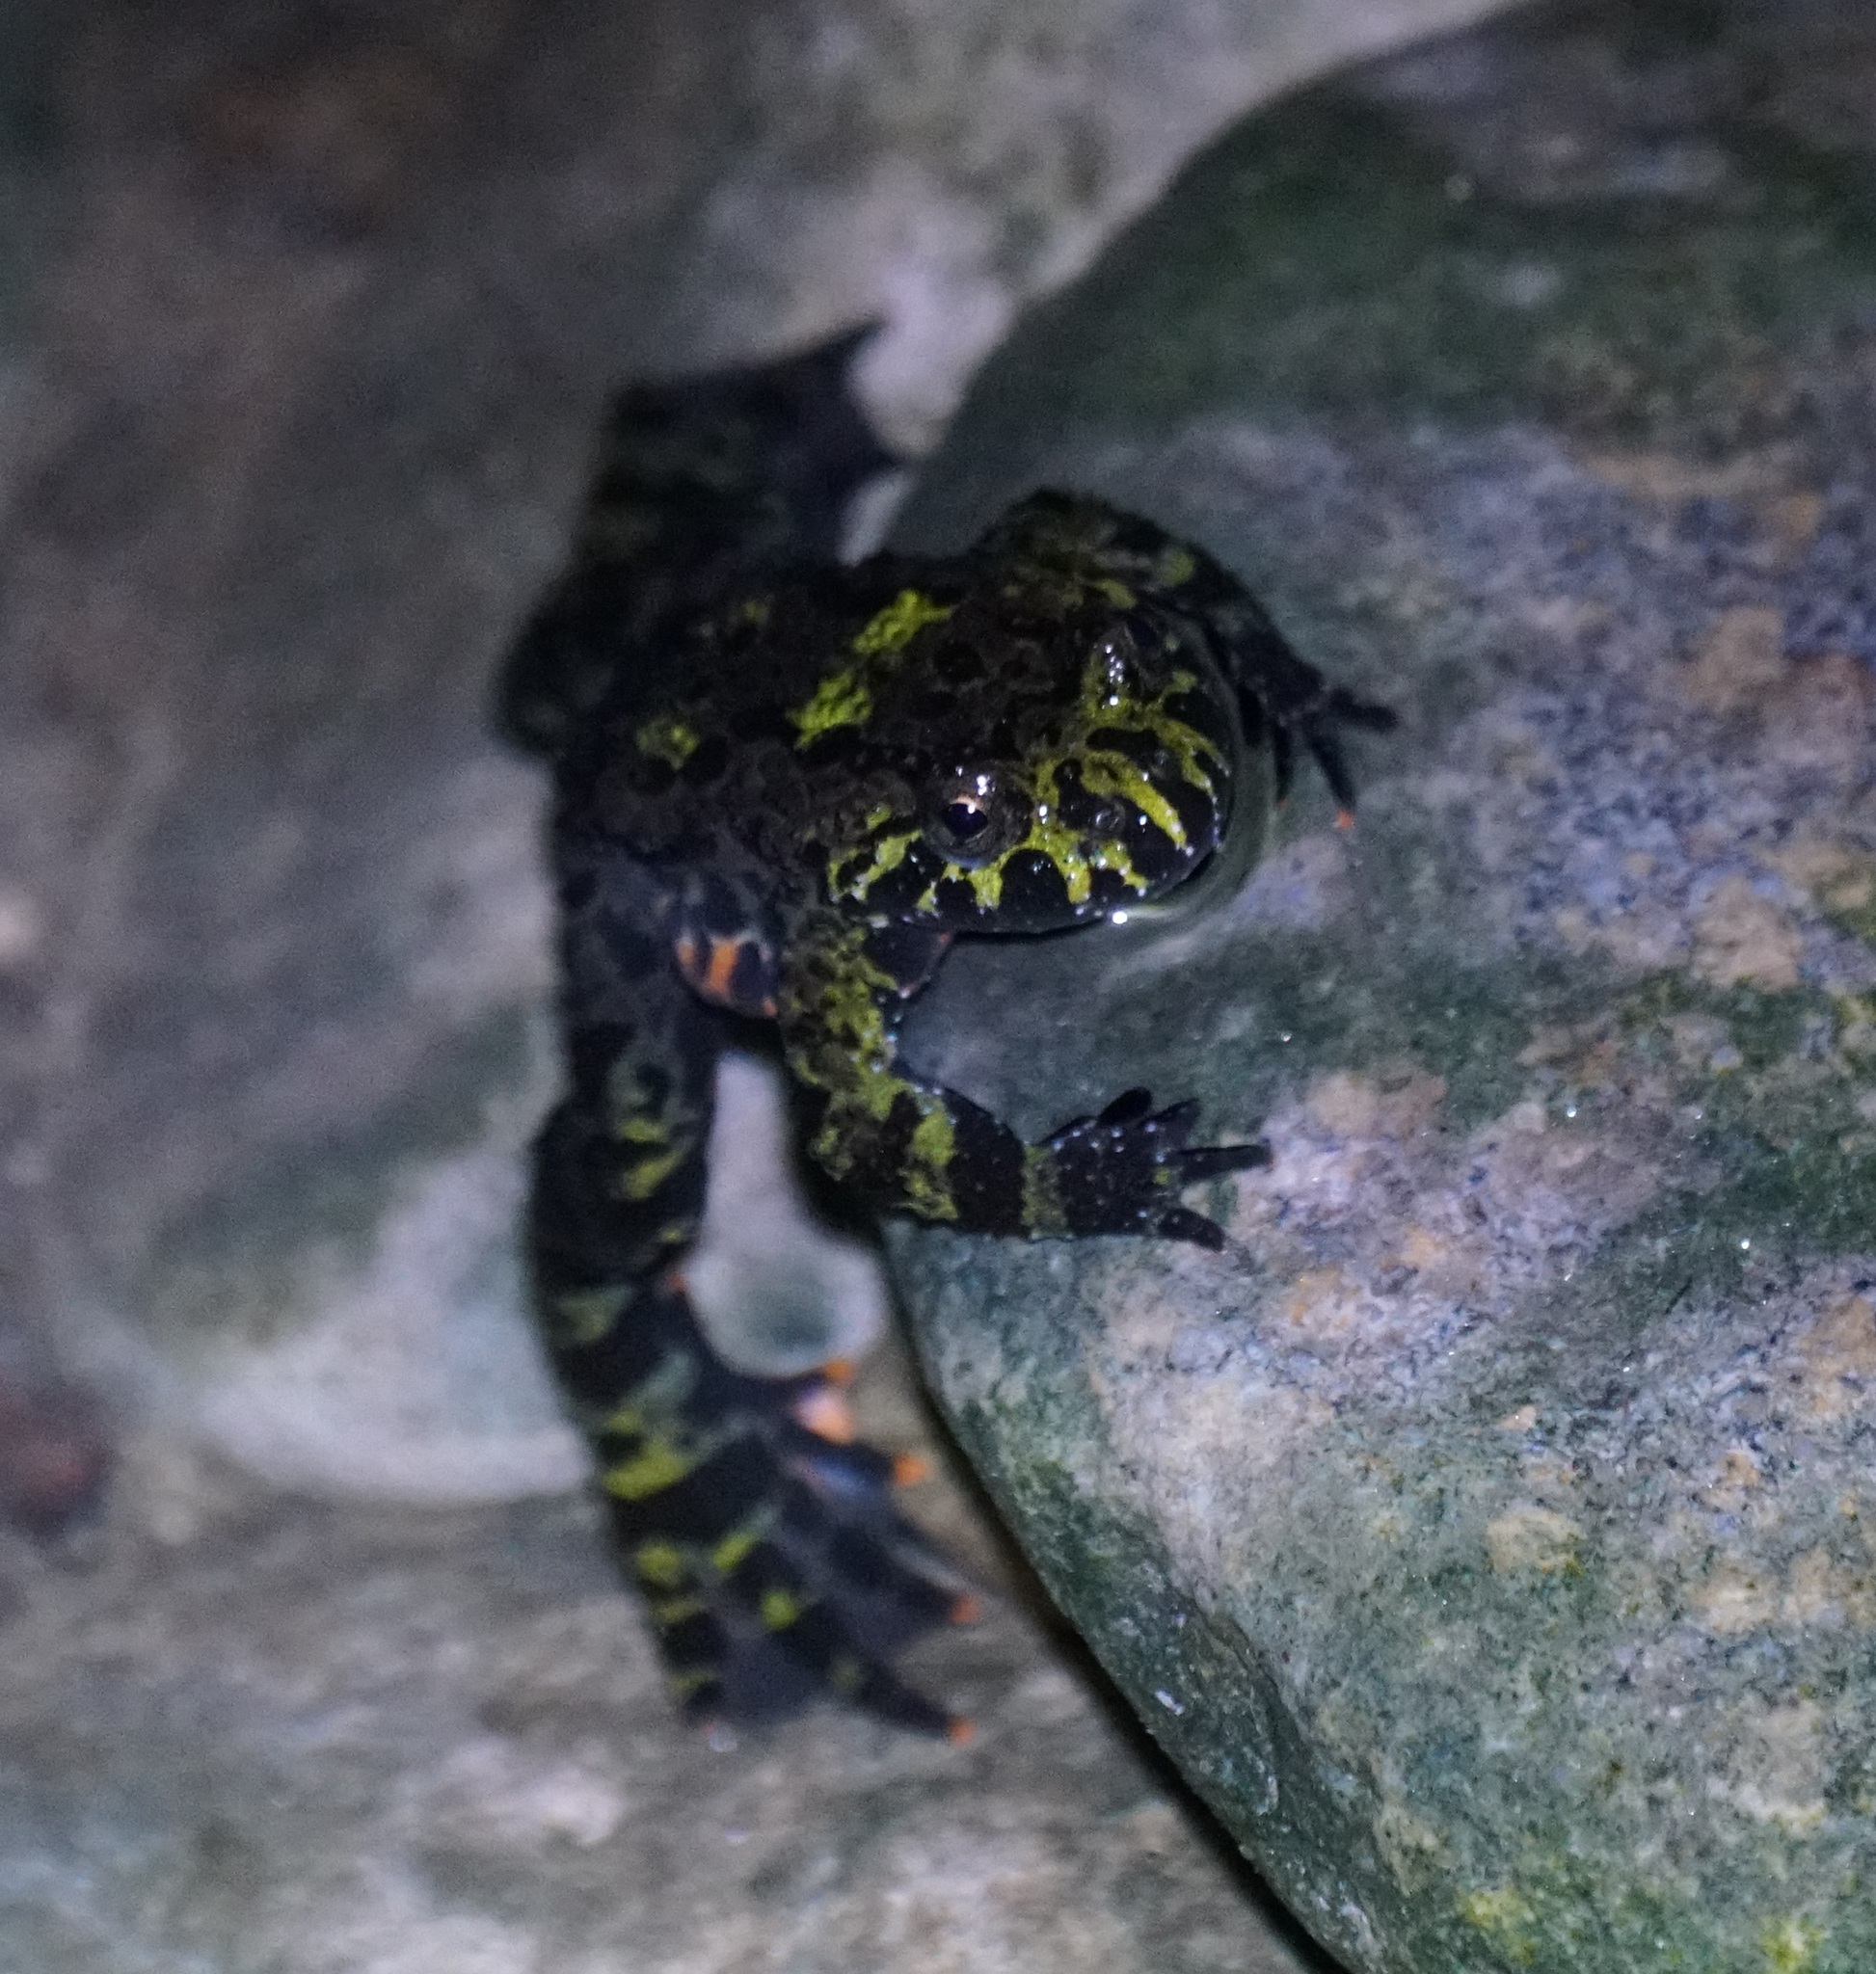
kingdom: Animalia
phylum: Chordata
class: Amphibia
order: Anura
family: Bombinatoridae
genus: Bombina
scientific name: Bombina orientalis
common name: Oriental firebelly toad
